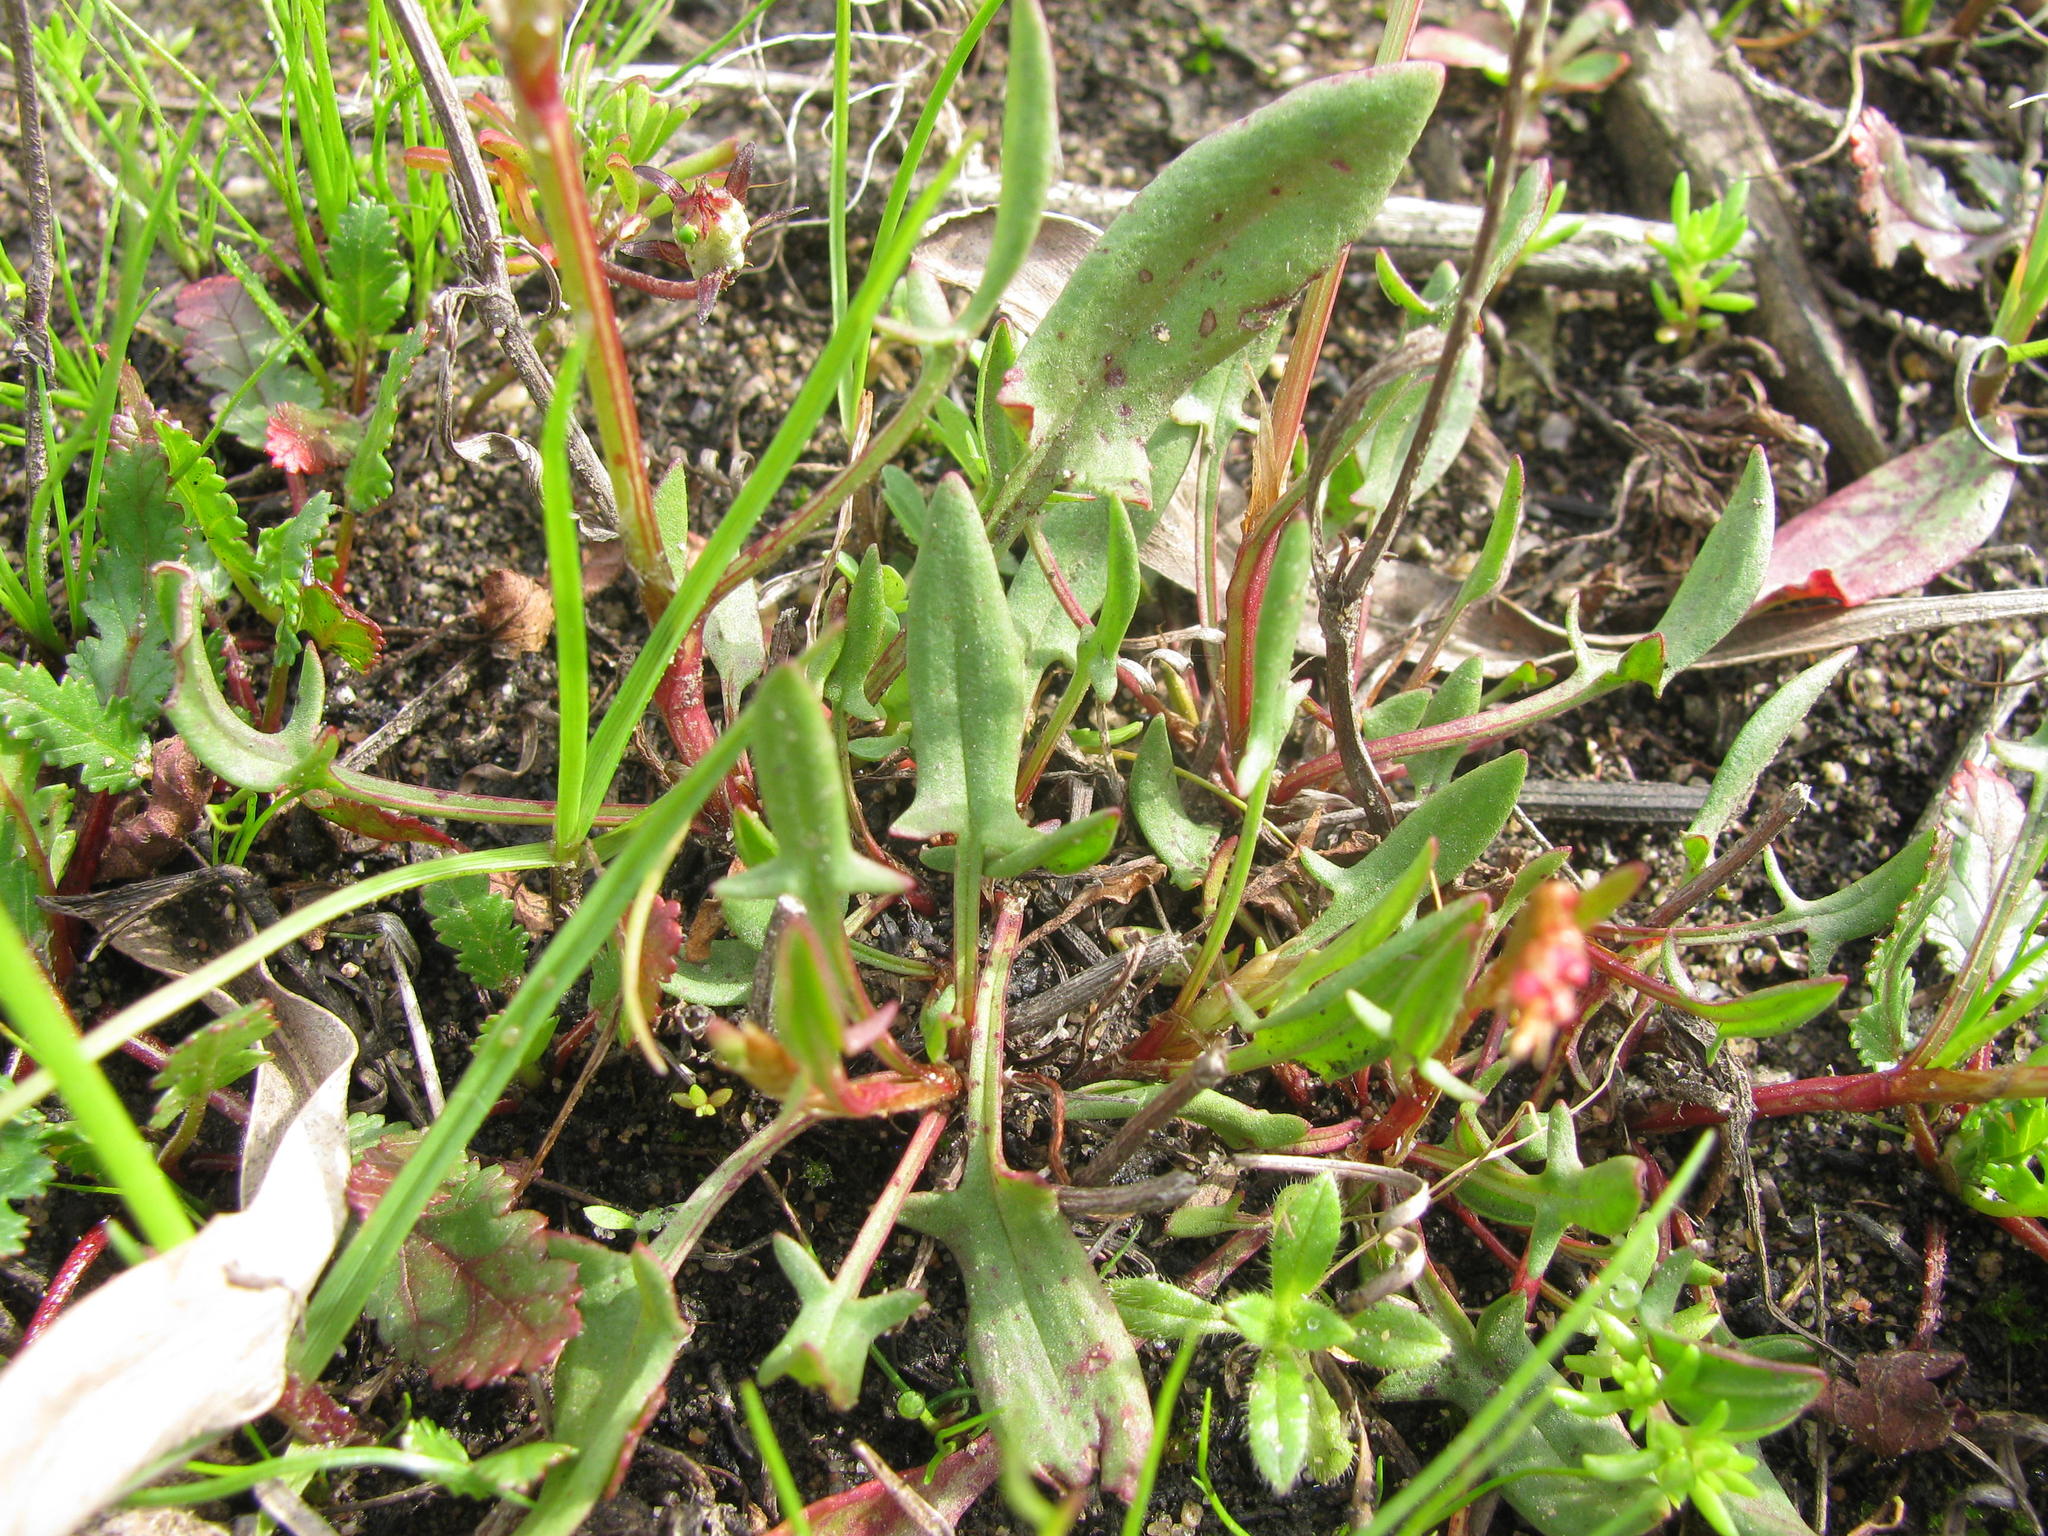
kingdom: Plantae
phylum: Tracheophyta
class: Magnoliopsida
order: Caryophyllales
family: Polygonaceae
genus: Rumex
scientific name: Rumex acetosella
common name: Common sheep sorrel
